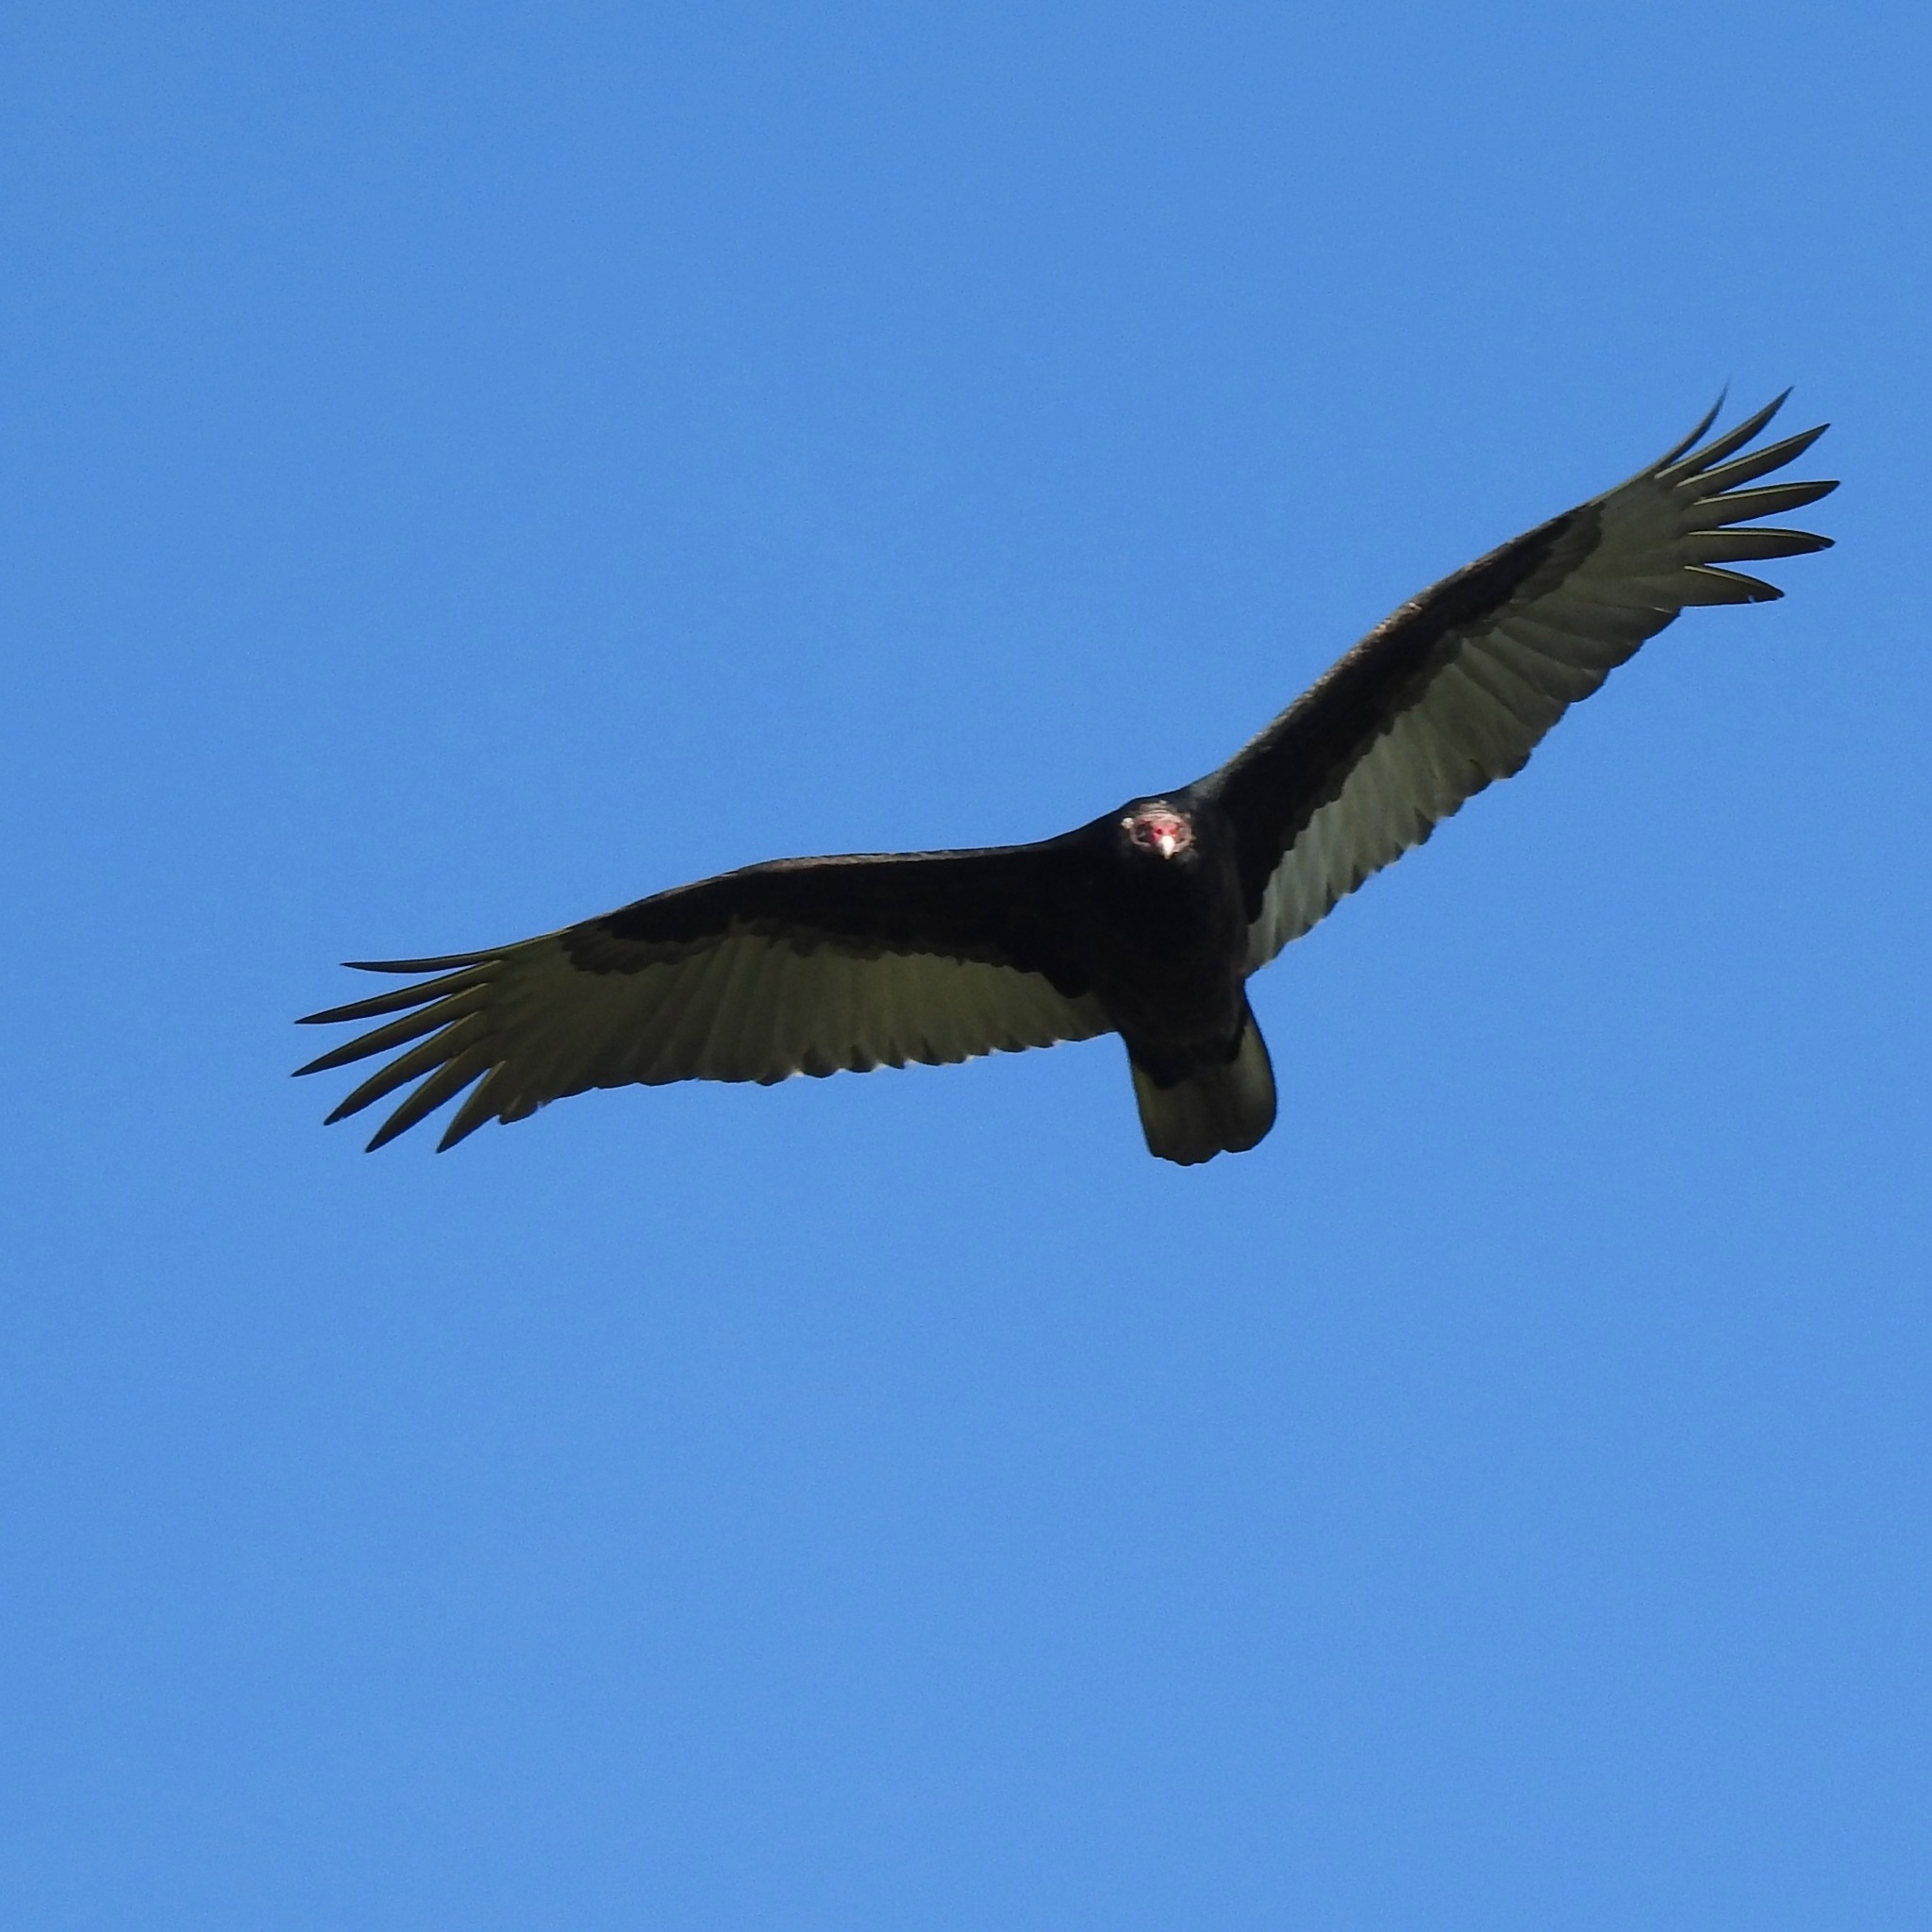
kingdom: Animalia
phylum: Chordata
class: Aves
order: Accipitriformes
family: Cathartidae
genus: Cathartes
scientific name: Cathartes aura
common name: Turkey vulture
